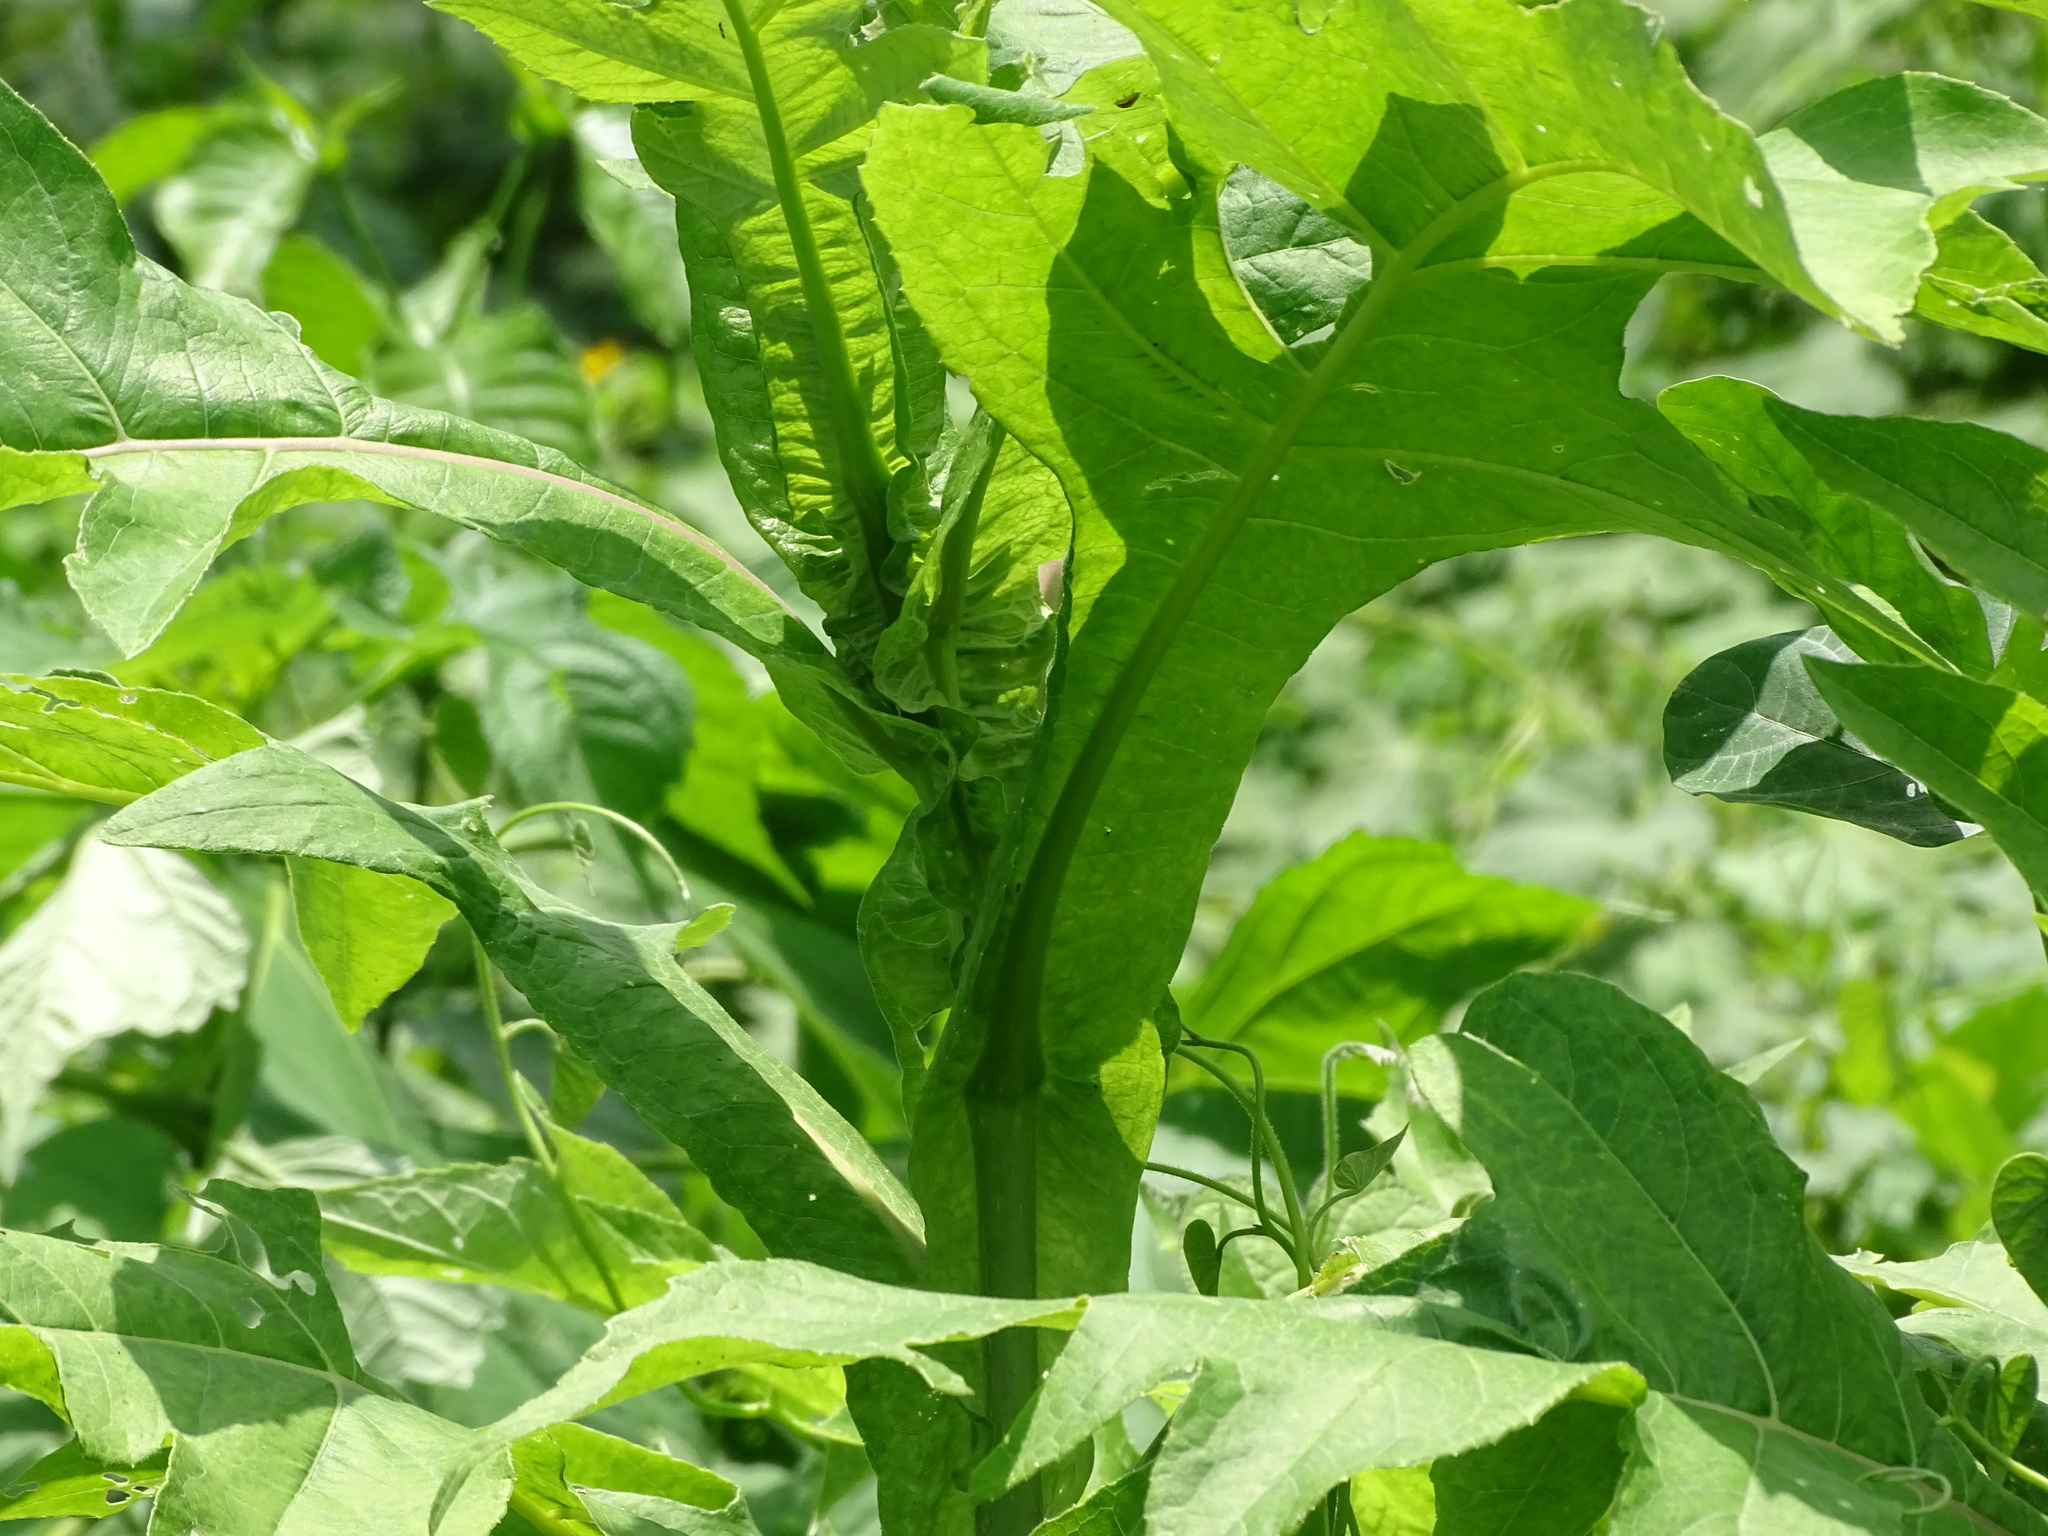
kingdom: Plantae
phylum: Tracheophyta
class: Magnoliopsida
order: Asterales
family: Asteraceae
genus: Verbesina
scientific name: Verbesina turbacensis
